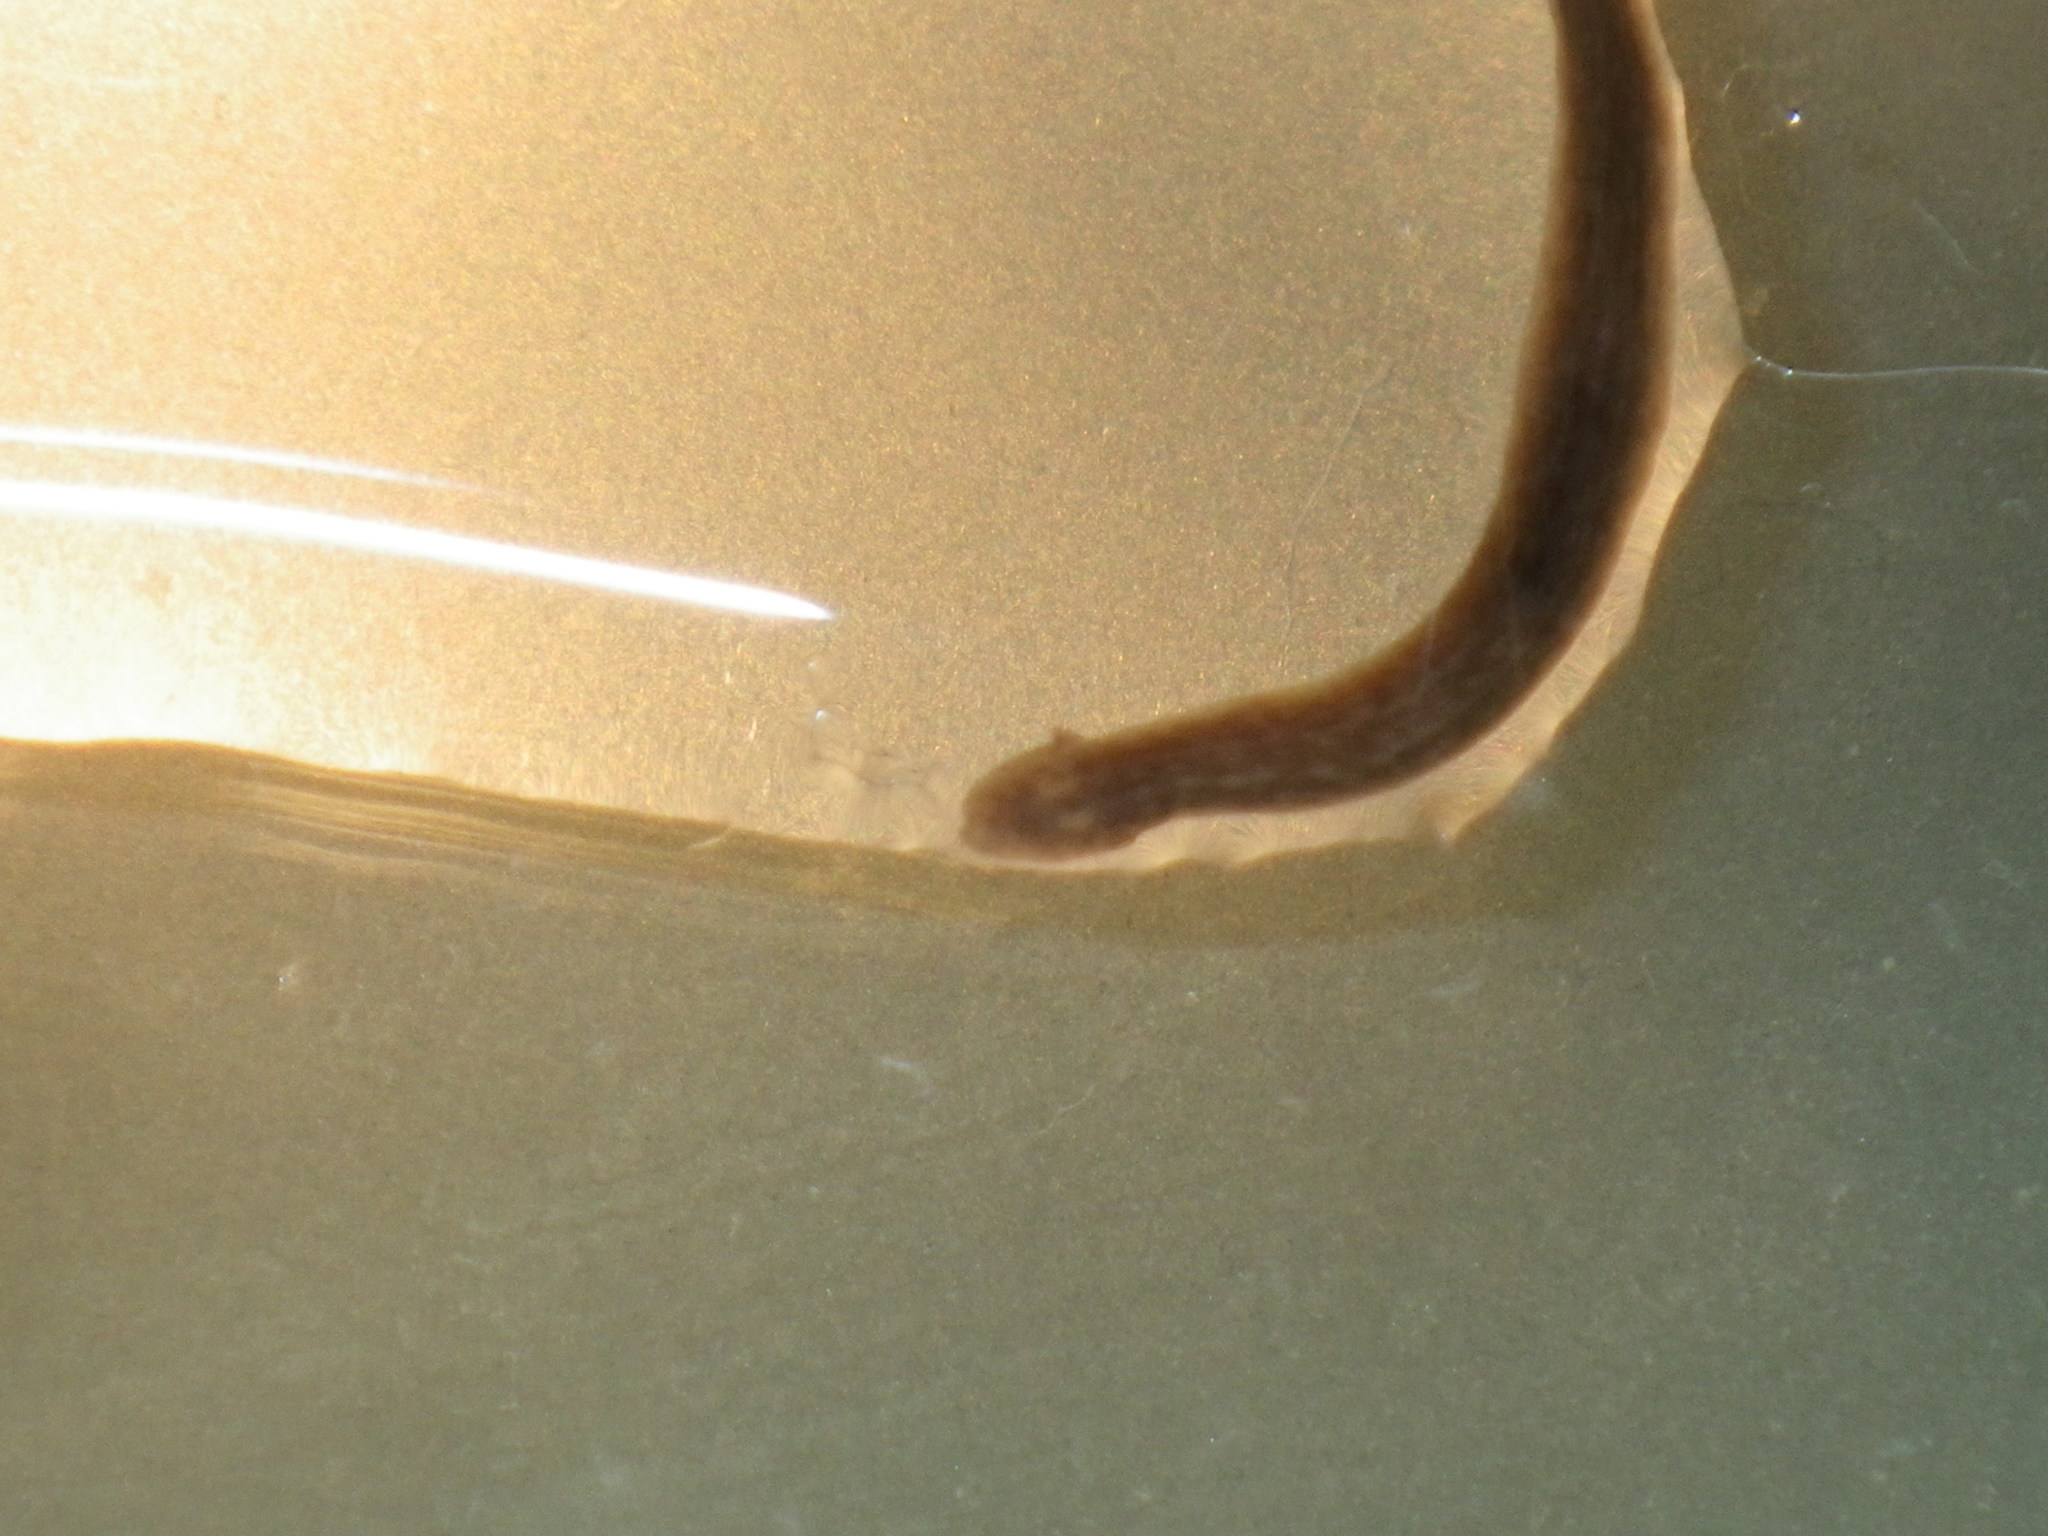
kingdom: Animalia
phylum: Platyhelminthes
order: Tricladida
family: Dugesiidae
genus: Girardia
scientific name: Girardia tigrina
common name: Brown planaria
